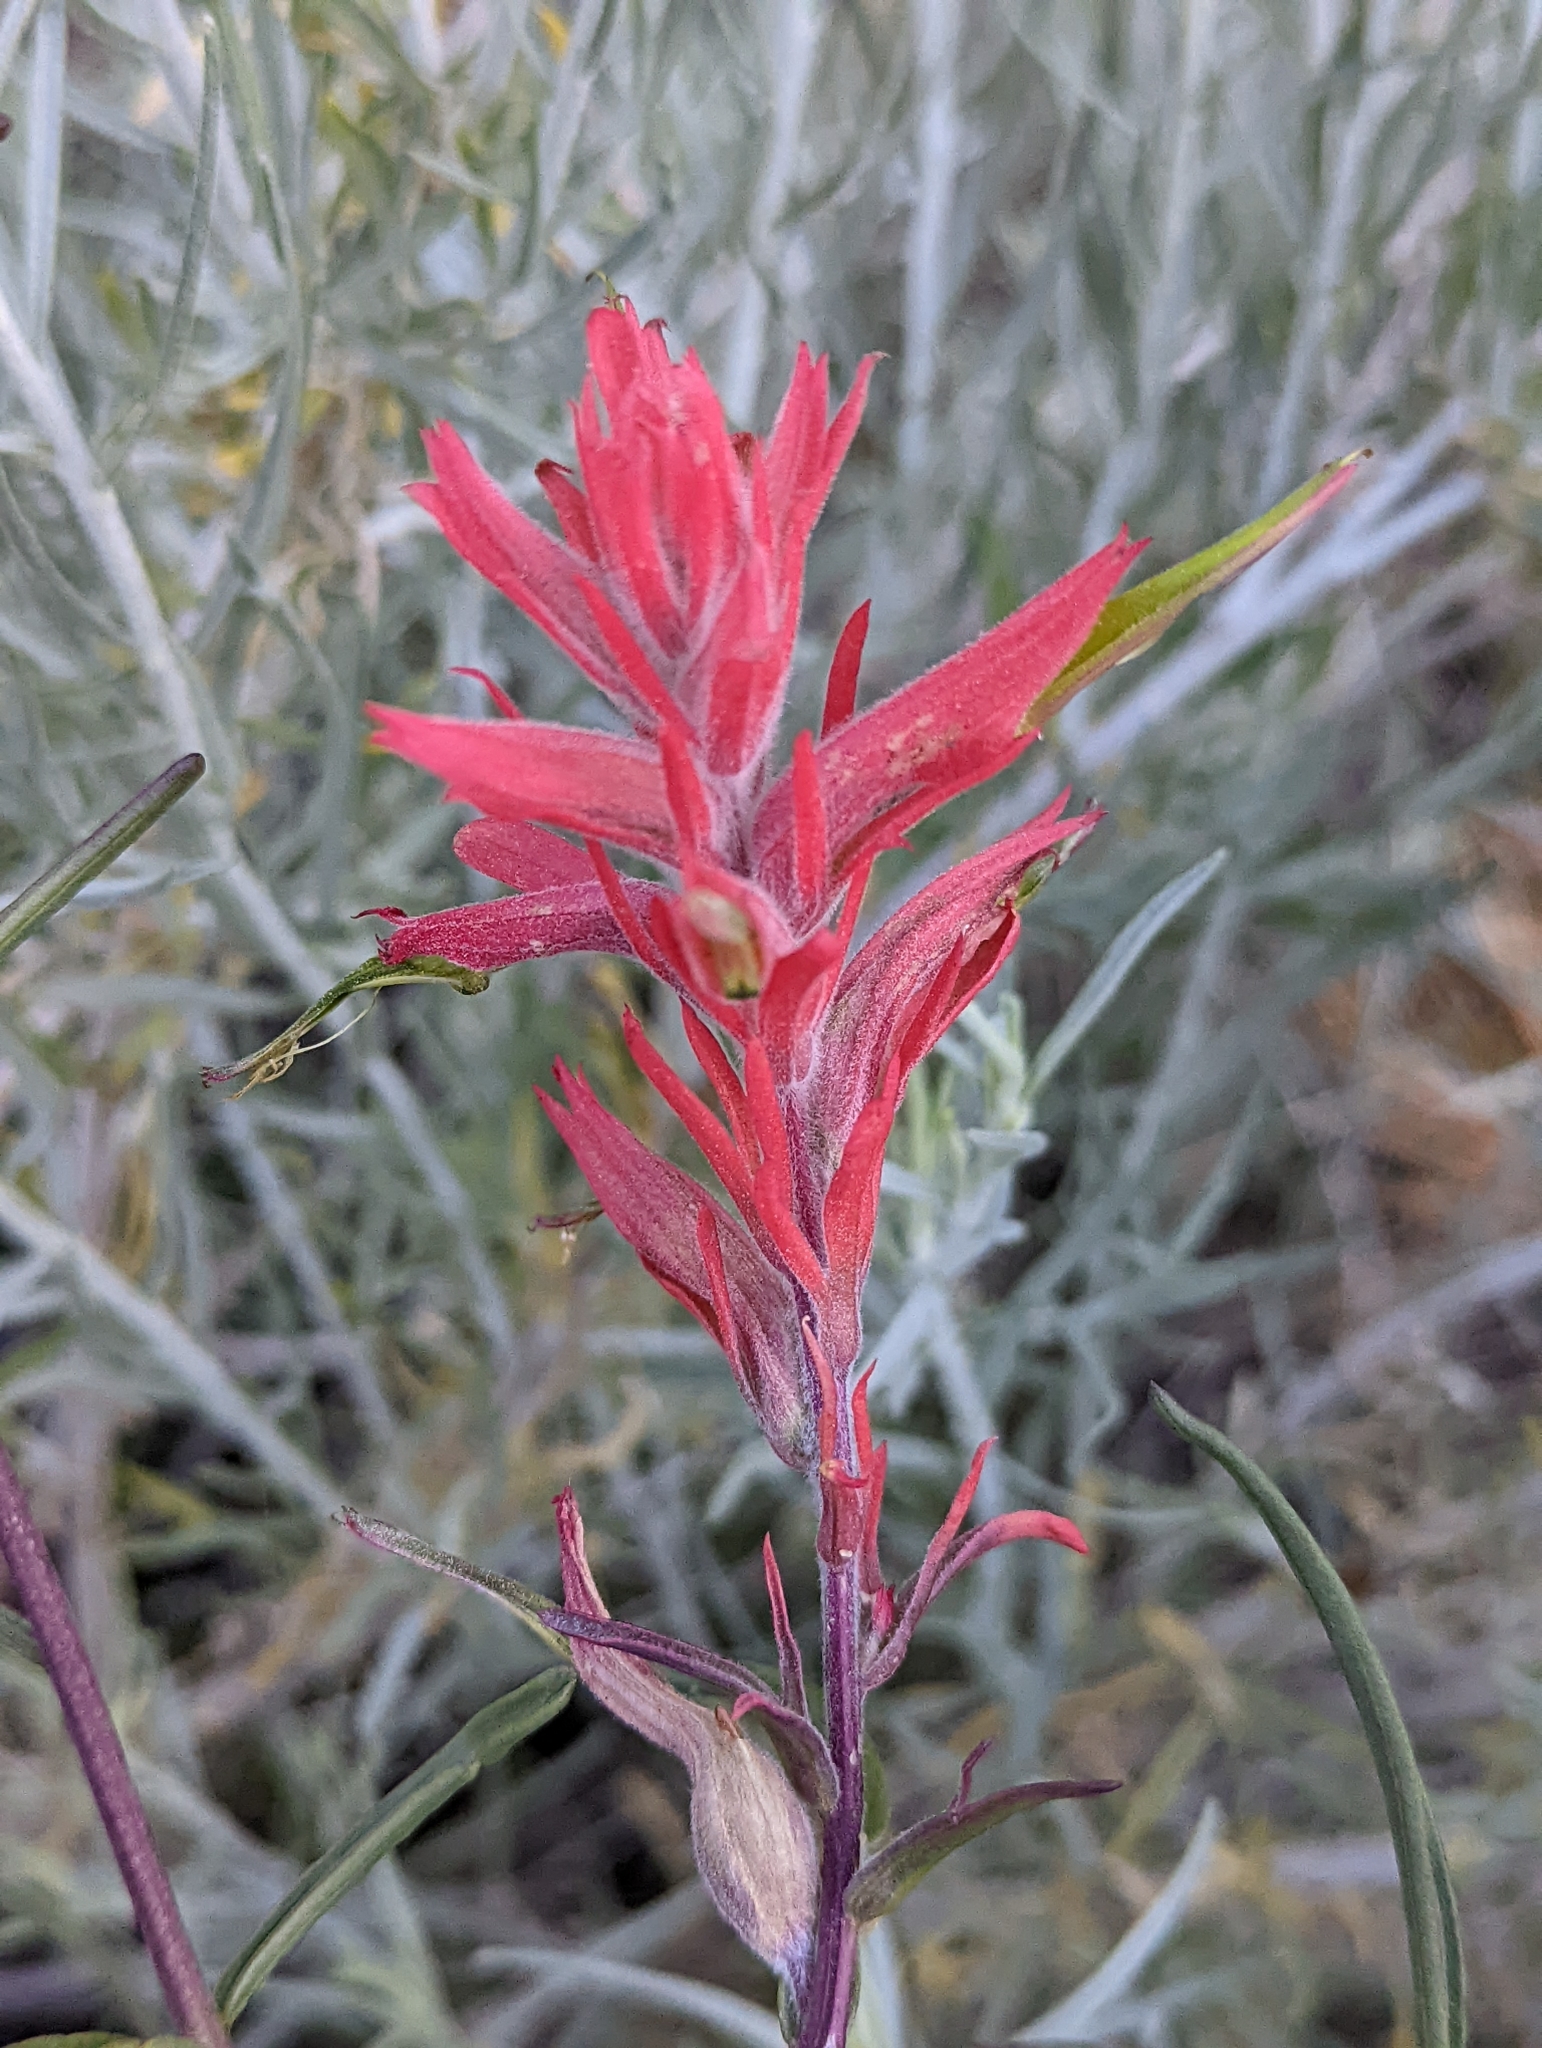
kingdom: Plantae
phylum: Tracheophyta
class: Magnoliopsida
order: Lamiales
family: Orobanchaceae
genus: Castilleja
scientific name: Castilleja linariifolia
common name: Wyoming paintbrush
